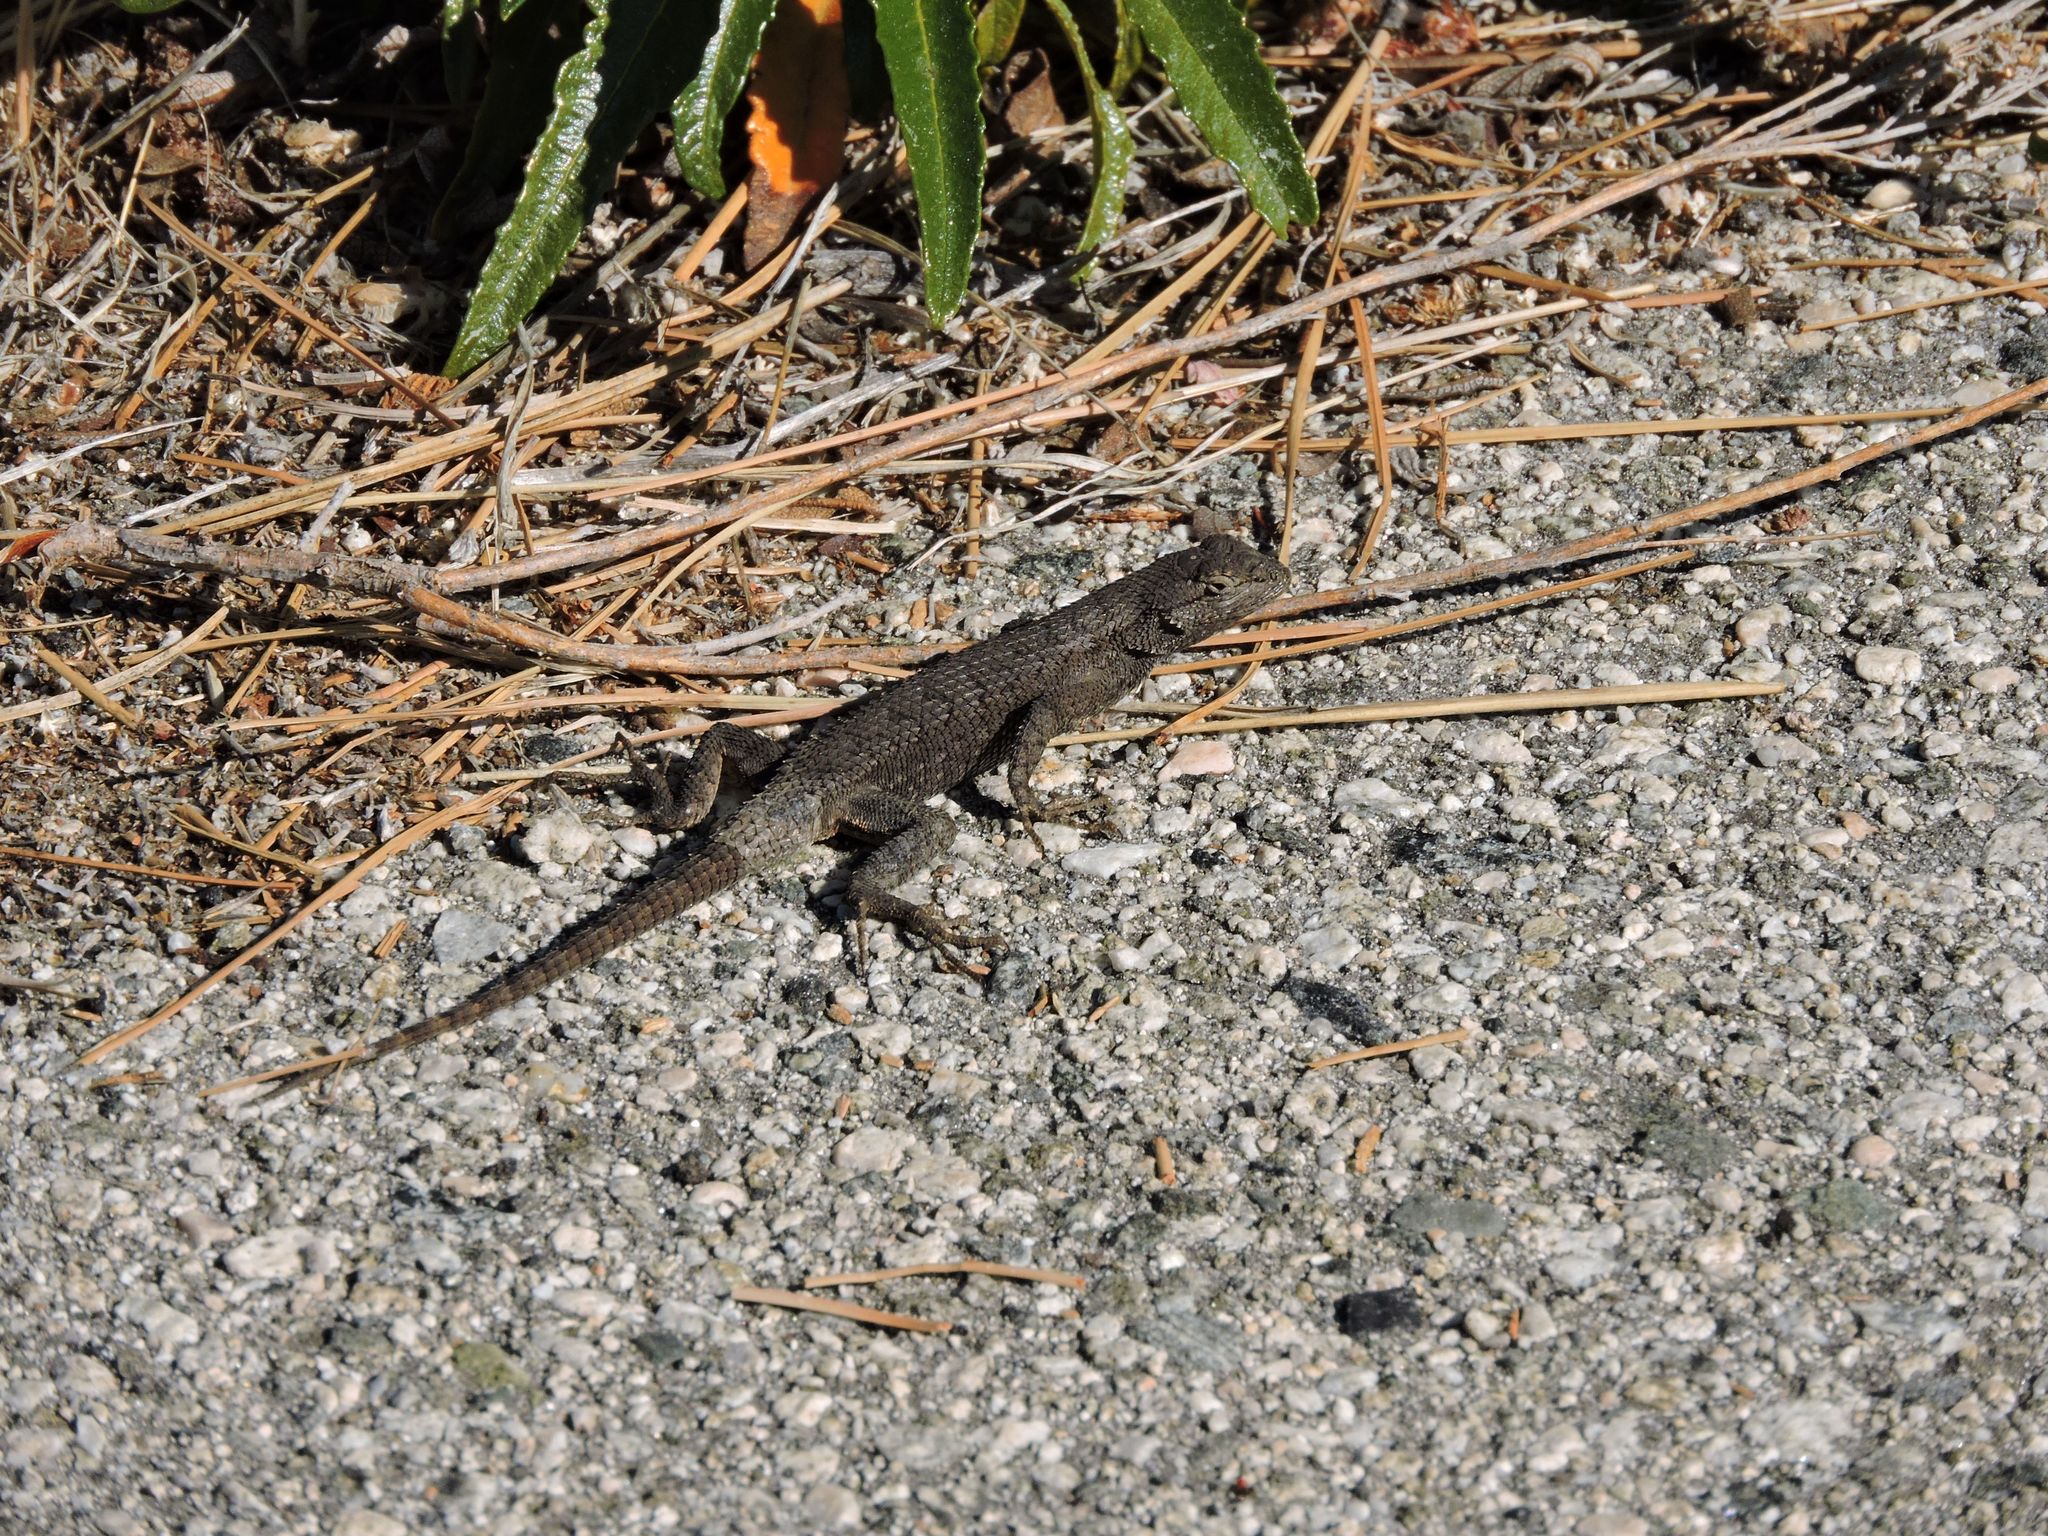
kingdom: Animalia
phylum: Chordata
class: Squamata
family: Phrynosomatidae
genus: Sceloporus
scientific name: Sceloporus occidentalis
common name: Western fence lizard
